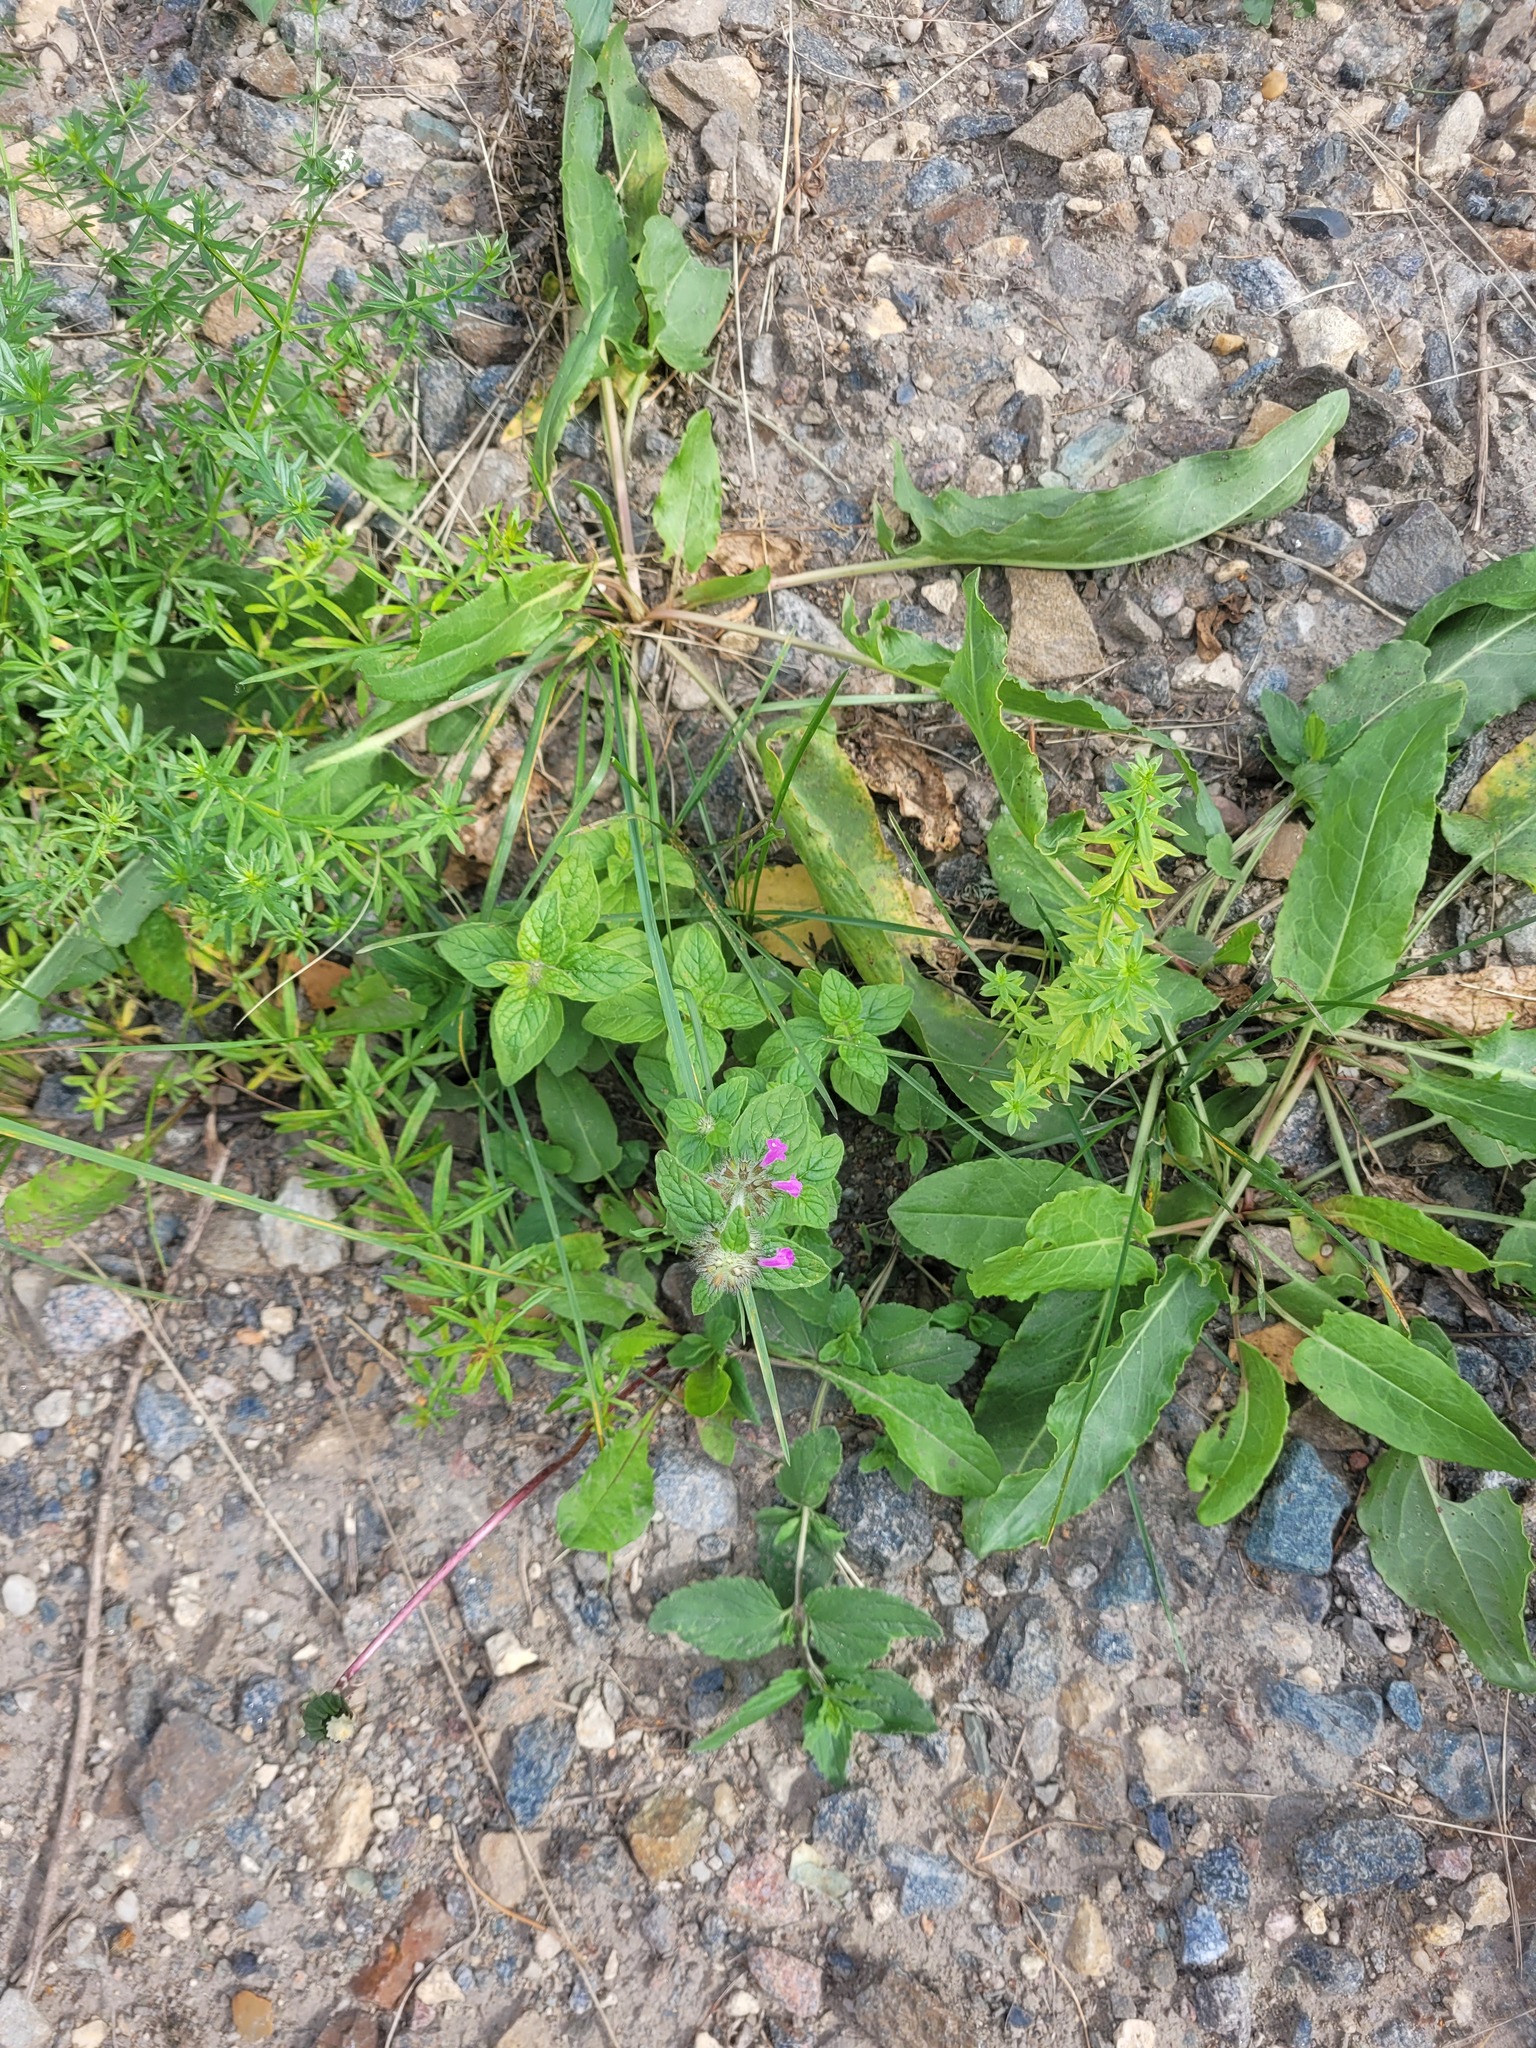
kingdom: Plantae
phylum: Tracheophyta
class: Magnoliopsida
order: Lamiales
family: Lamiaceae
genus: Clinopodium
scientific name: Clinopodium vulgare
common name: Wild basil
